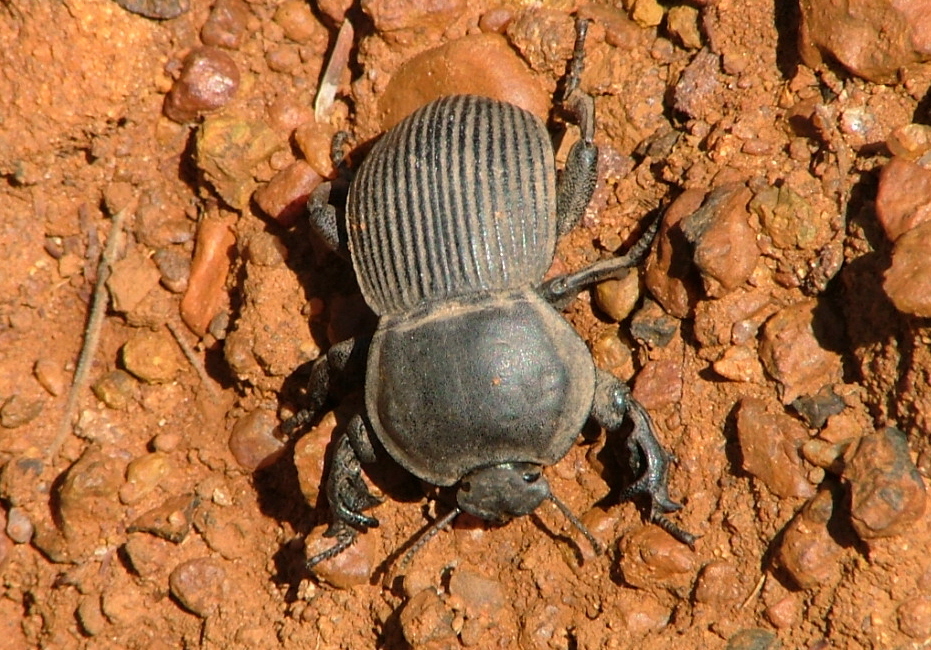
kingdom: Animalia
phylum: Arthropoda
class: Insecta
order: Coleoptera
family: Tenebrionidae
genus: Anomalipus
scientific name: Anomalipus
